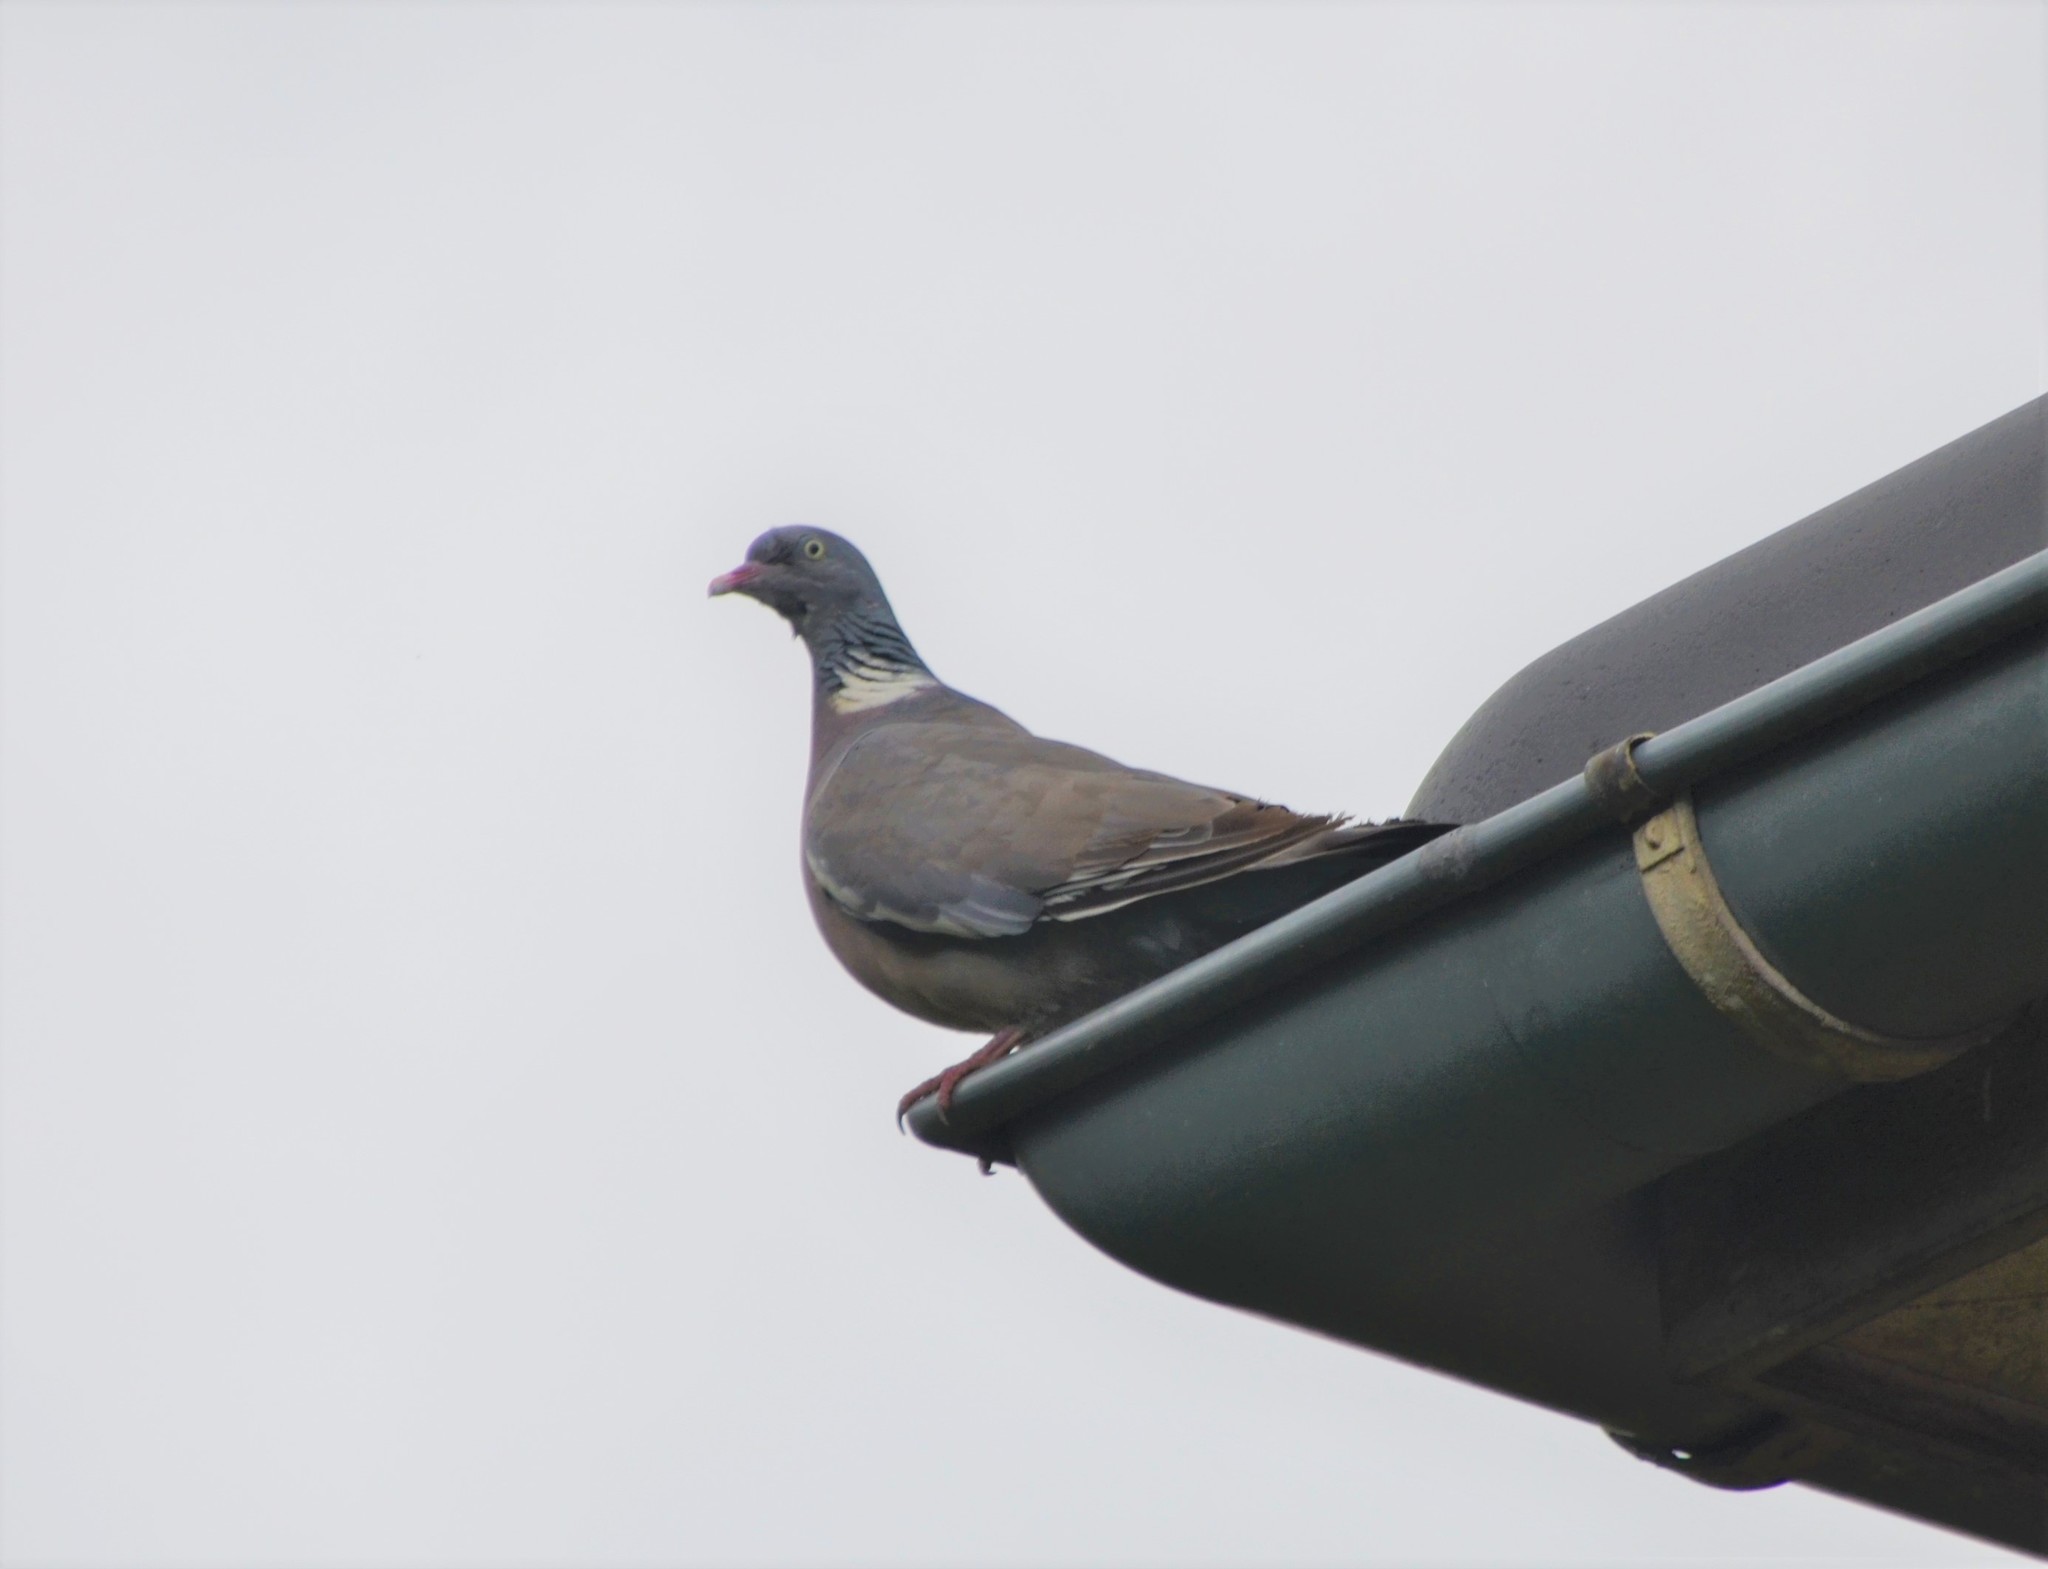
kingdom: Animalia
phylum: Chordata
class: Aves
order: Columbiformes
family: Columbidae
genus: Columba
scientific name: Columba palumbus
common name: Common wood pigeon
